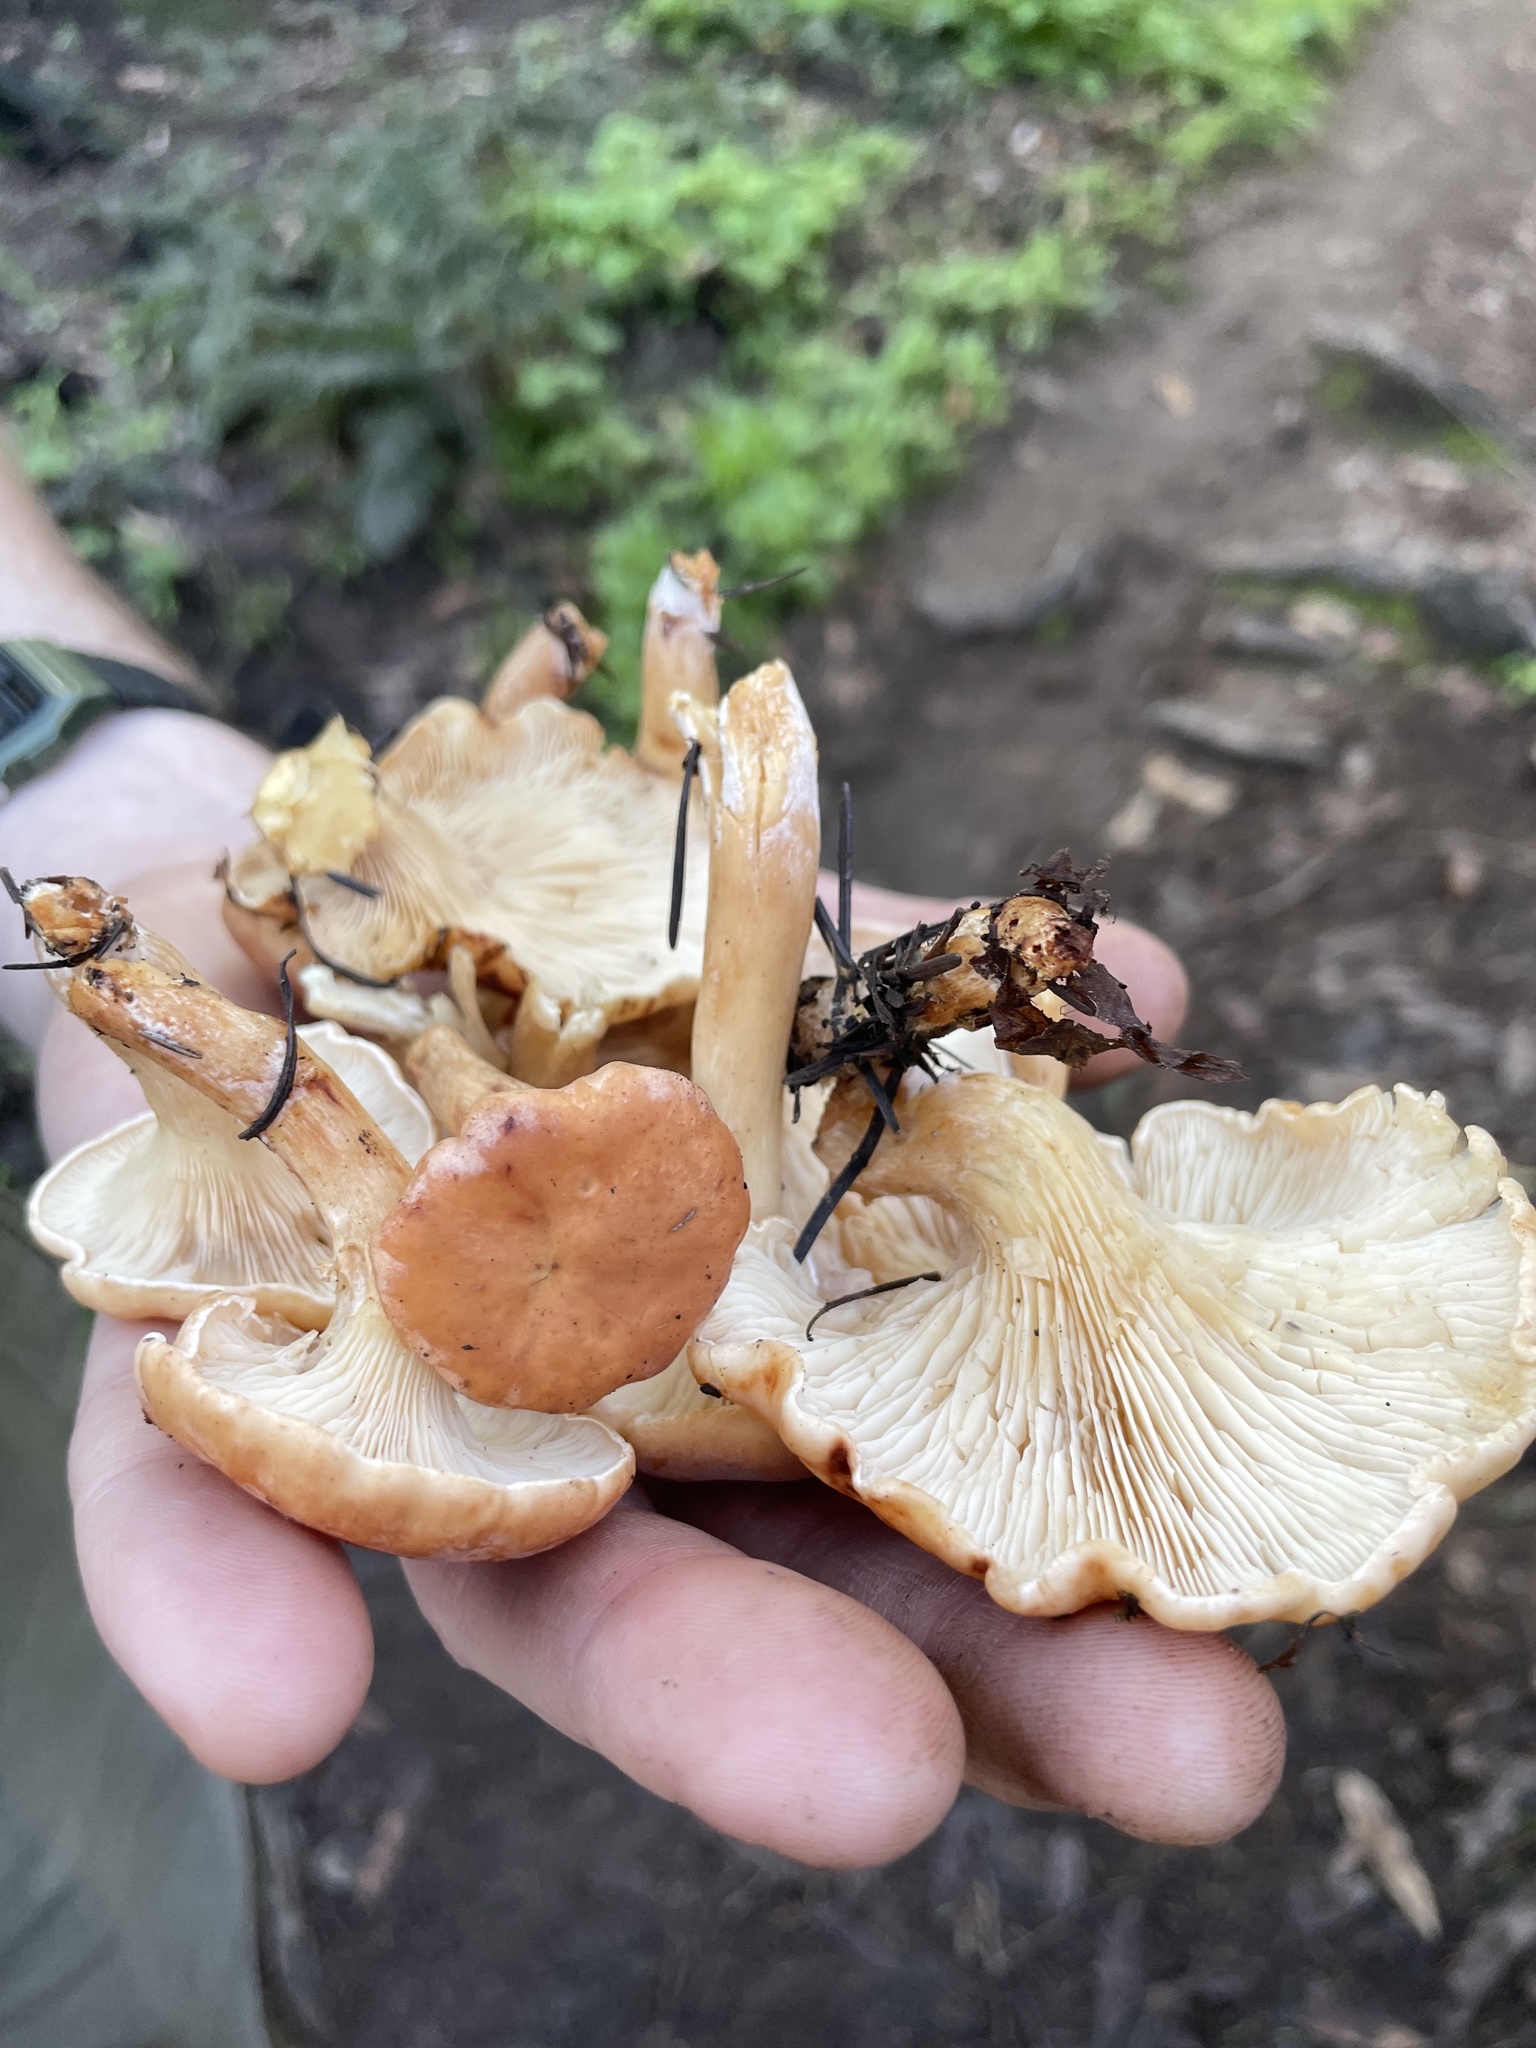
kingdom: Fungi
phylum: Basidiomycota
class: Agaricomycetes
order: Agaricales
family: Tricholomataceae
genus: Paralepista
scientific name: Paralepista flaccida
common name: Tawny funnel cap
